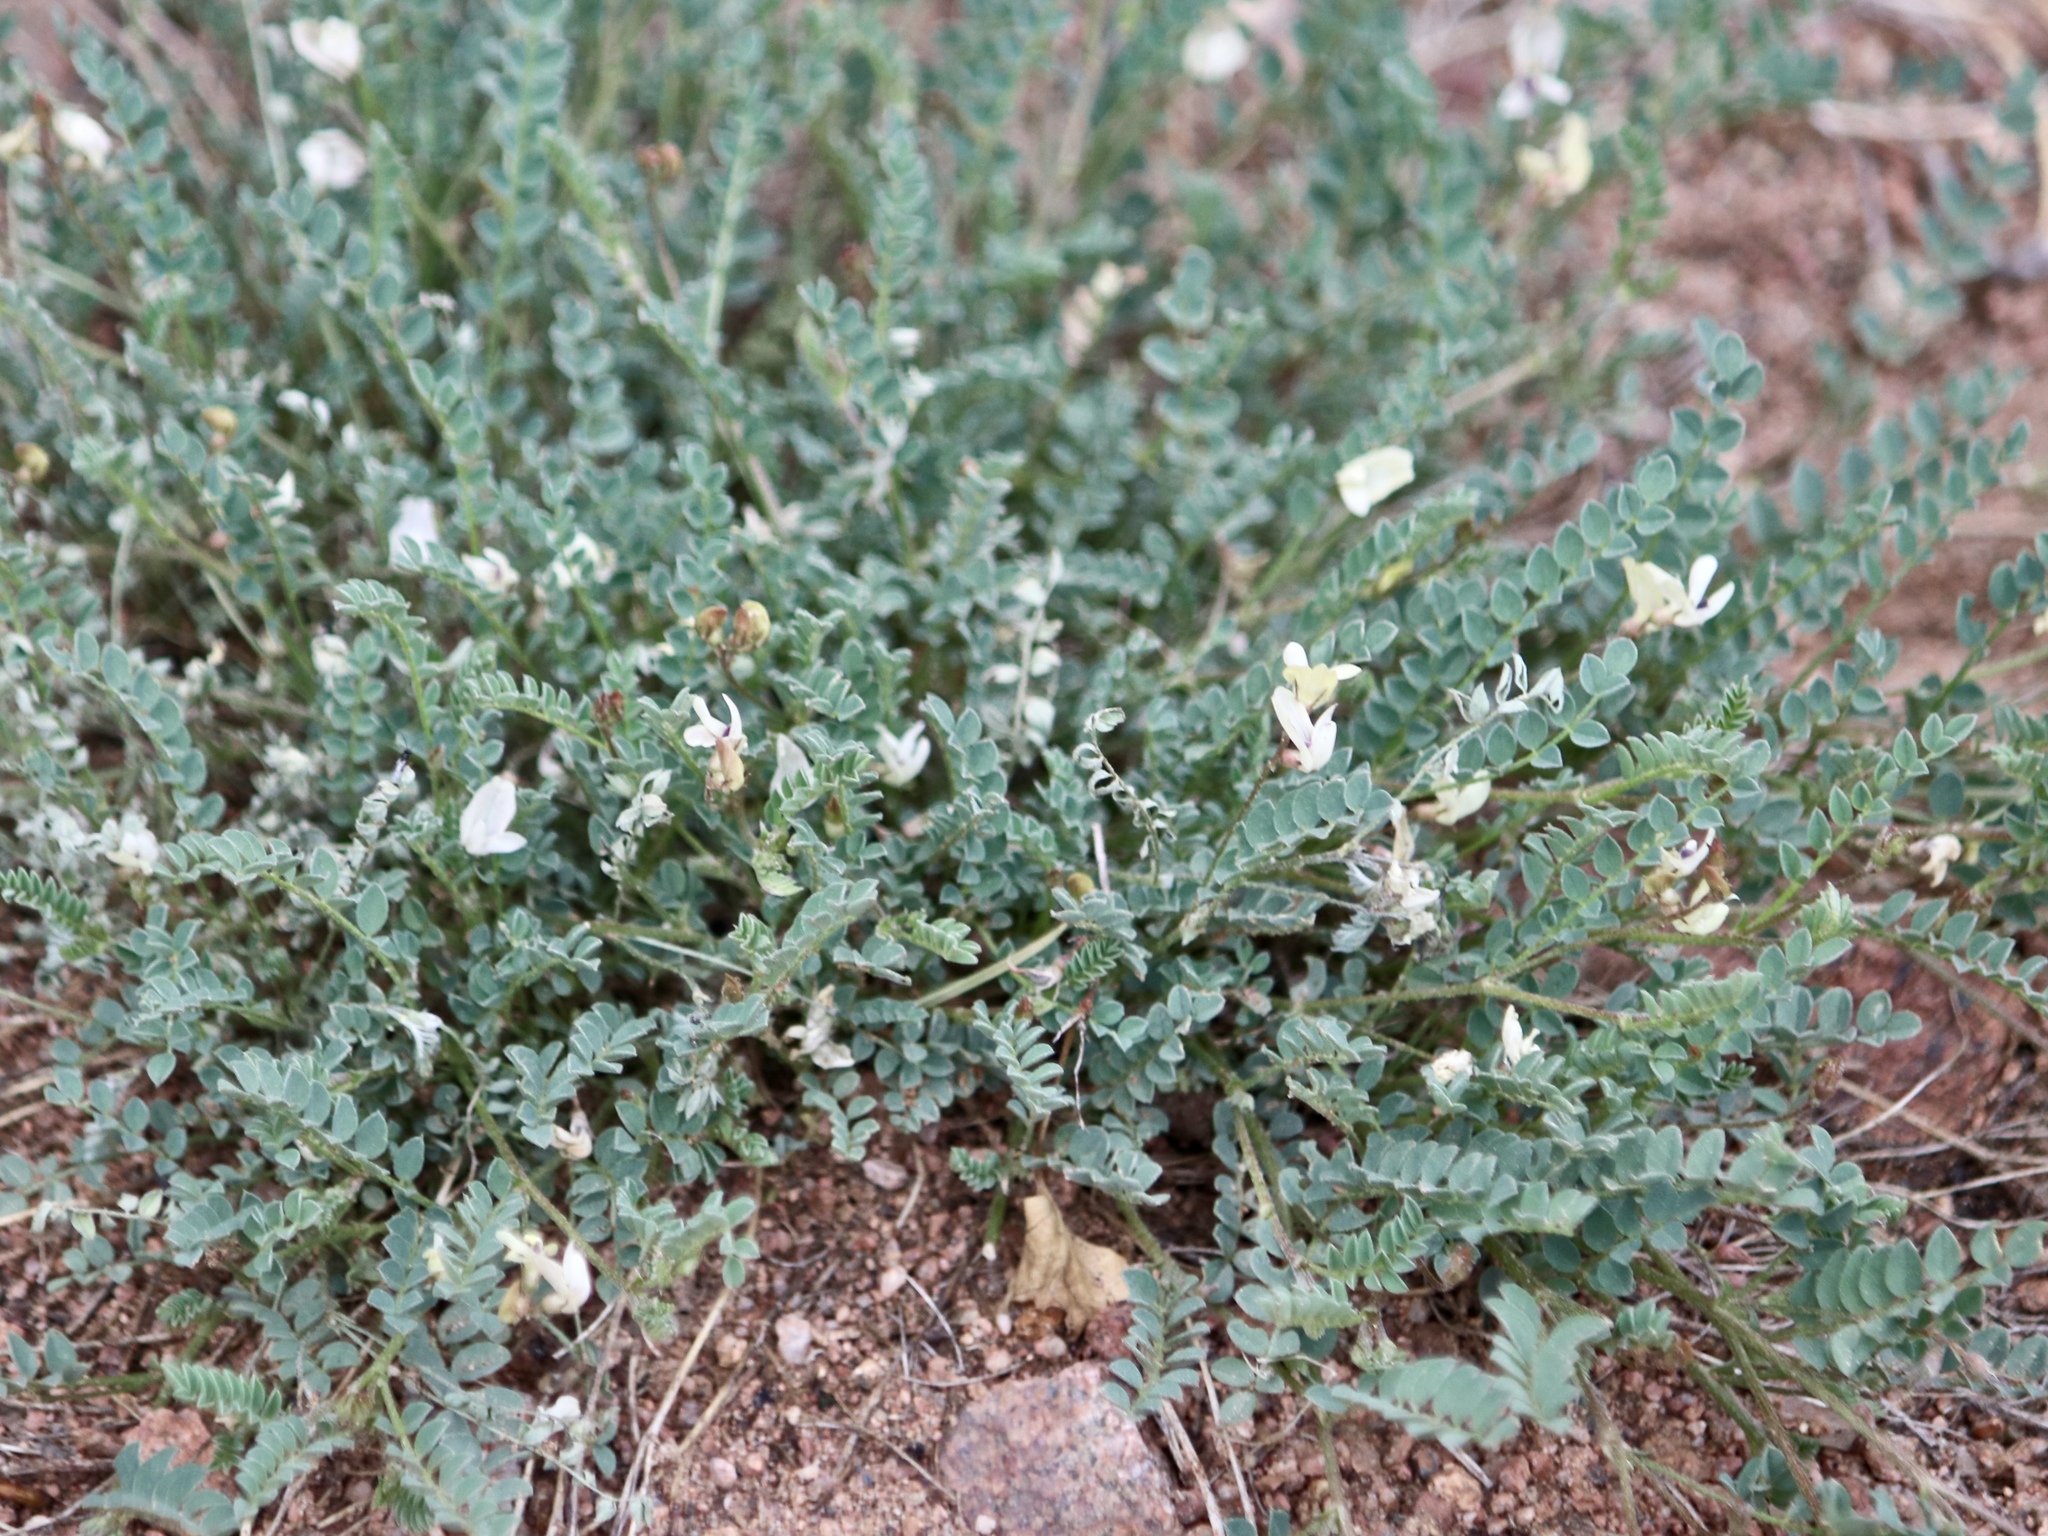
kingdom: Plantae
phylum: Tracheophyta
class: Magnoliopsida
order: Fabales
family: Fabaceae
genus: Astragalus
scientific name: Astragalus sparsiflorus
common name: Front range milkvetch
